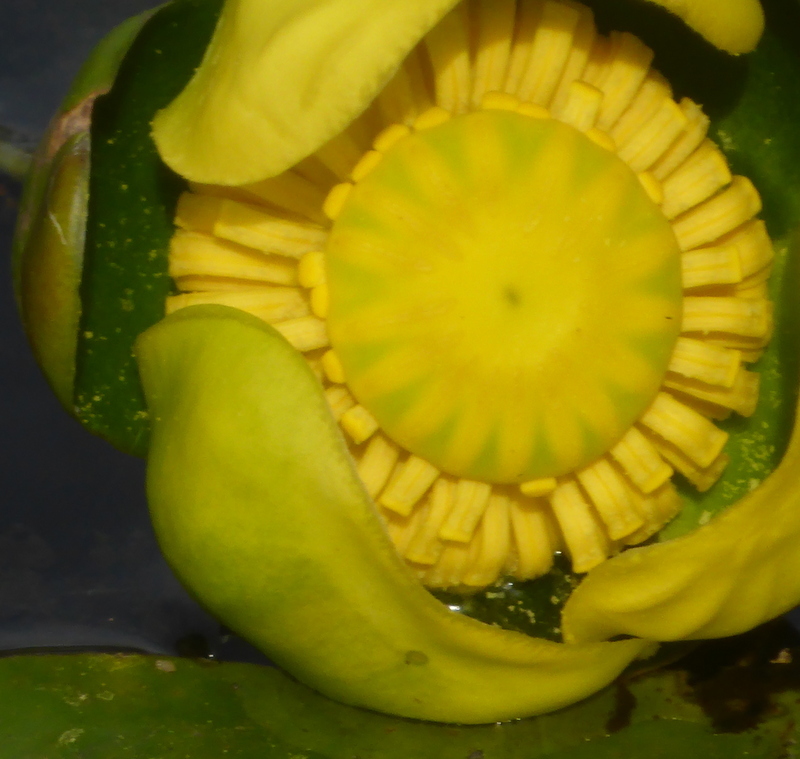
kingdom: Plantae
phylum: Tracheophyta
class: Magnoliopsida
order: Nymphaeales
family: Nymphaeaceae
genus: Nuphar
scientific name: Nuphar advena
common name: Spatter-dock
